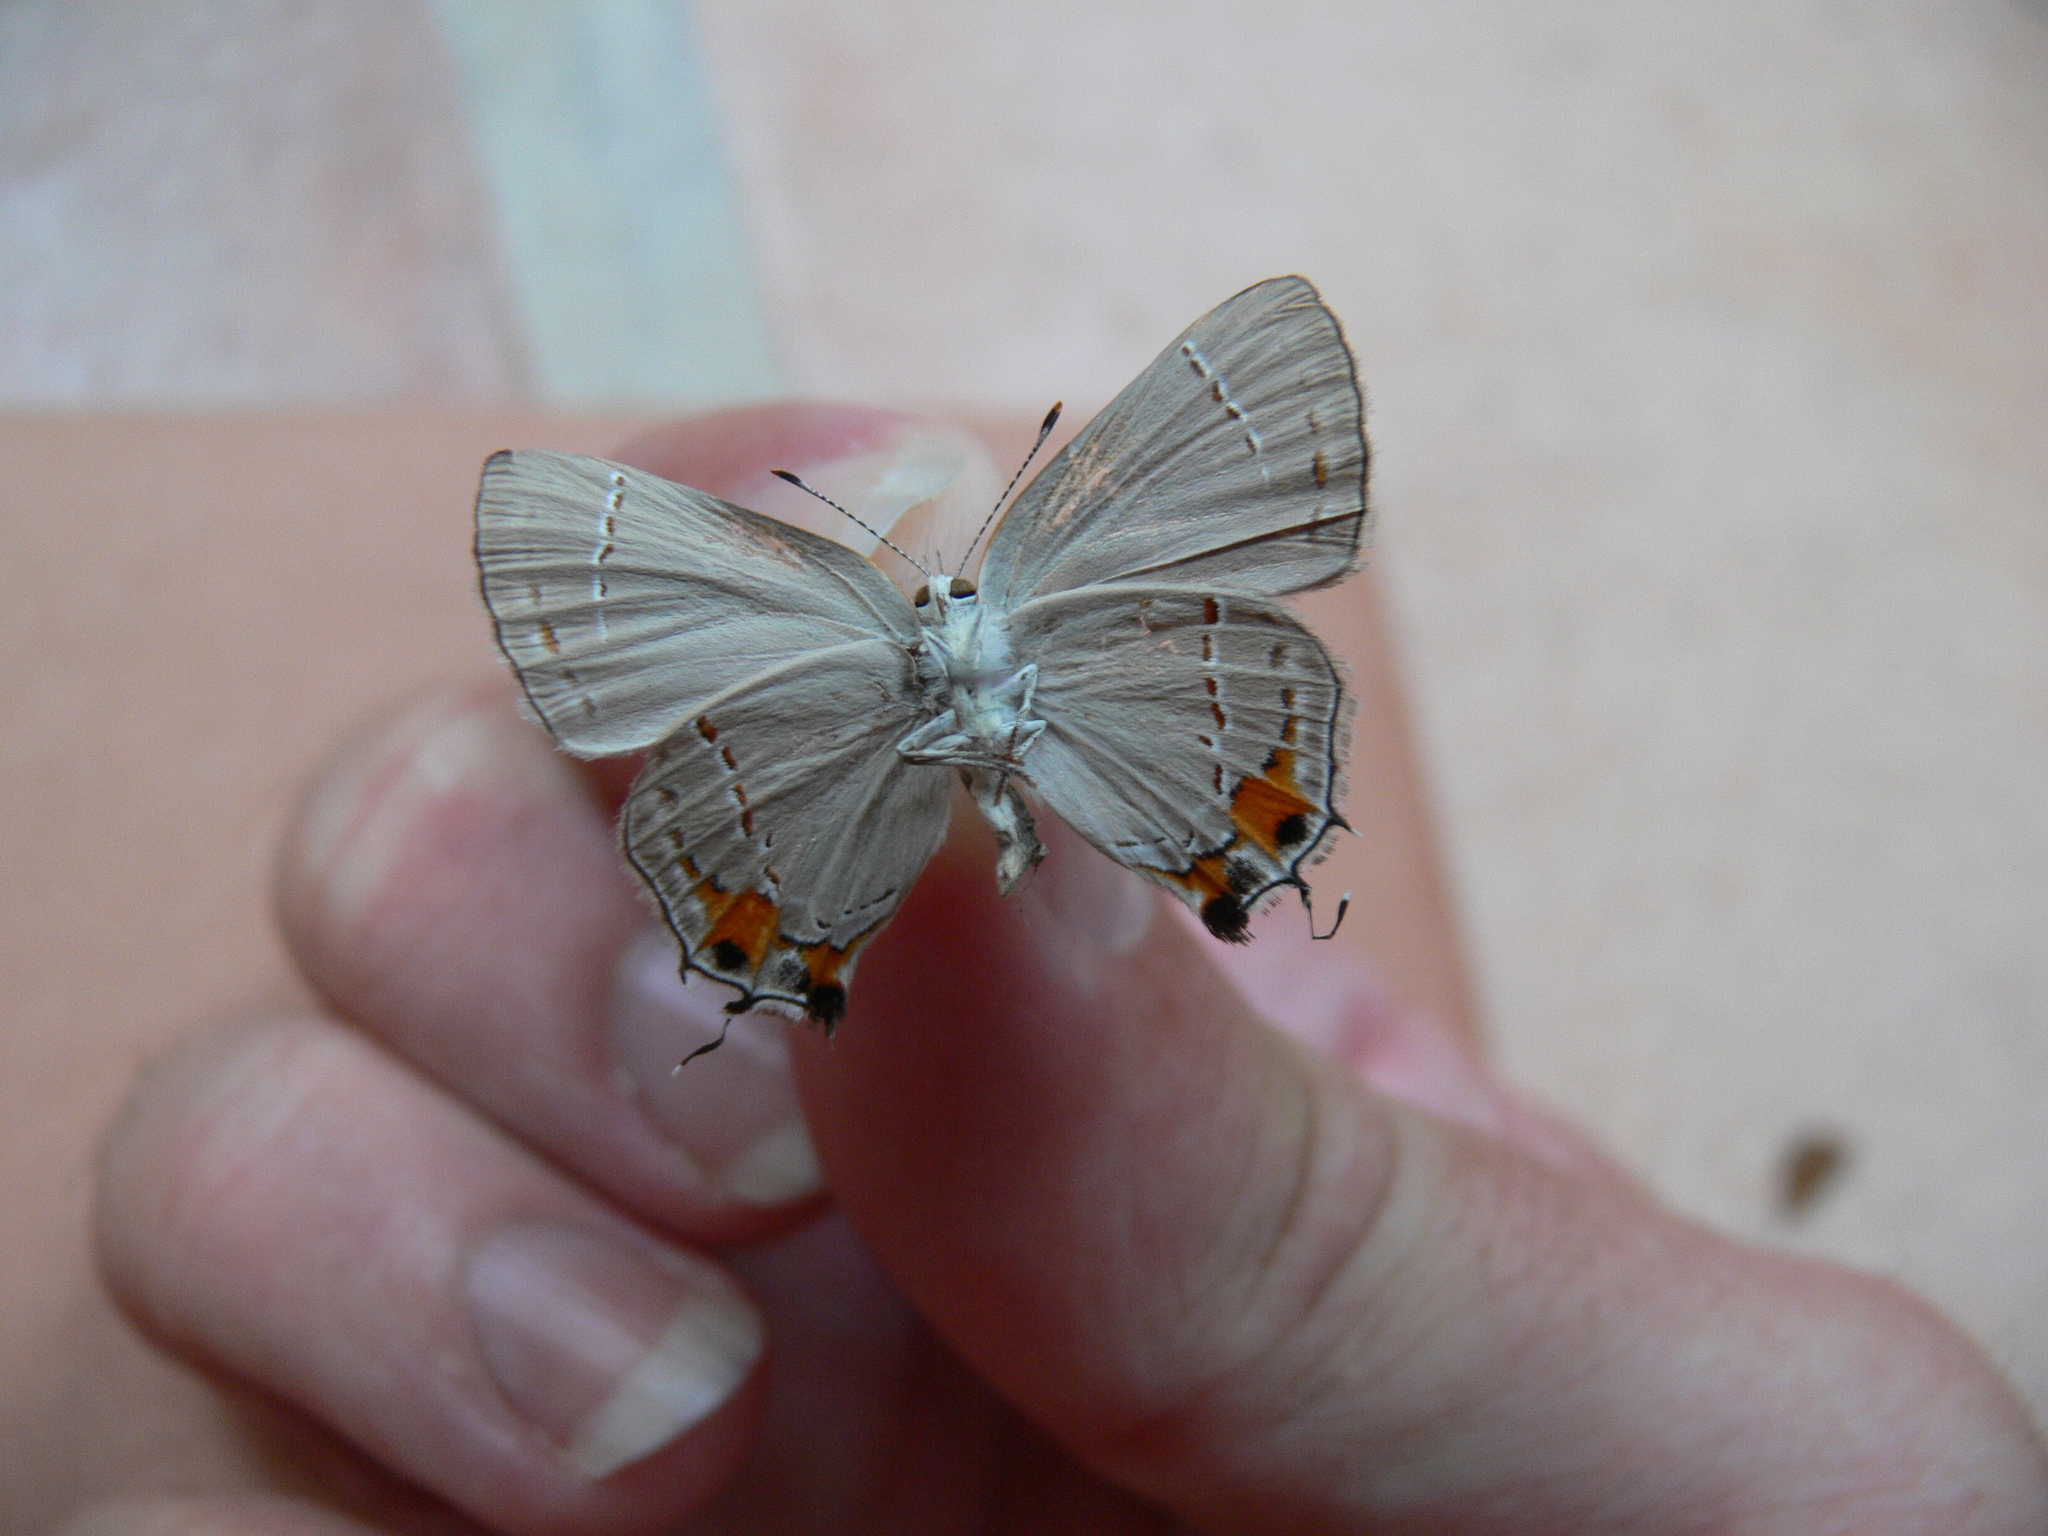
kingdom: Animalia
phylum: Arthropoda
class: Insecta
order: Lepidoptera
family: Lycaenidae
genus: Strymon
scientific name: Strymon melinus
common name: Gray hairstreak
